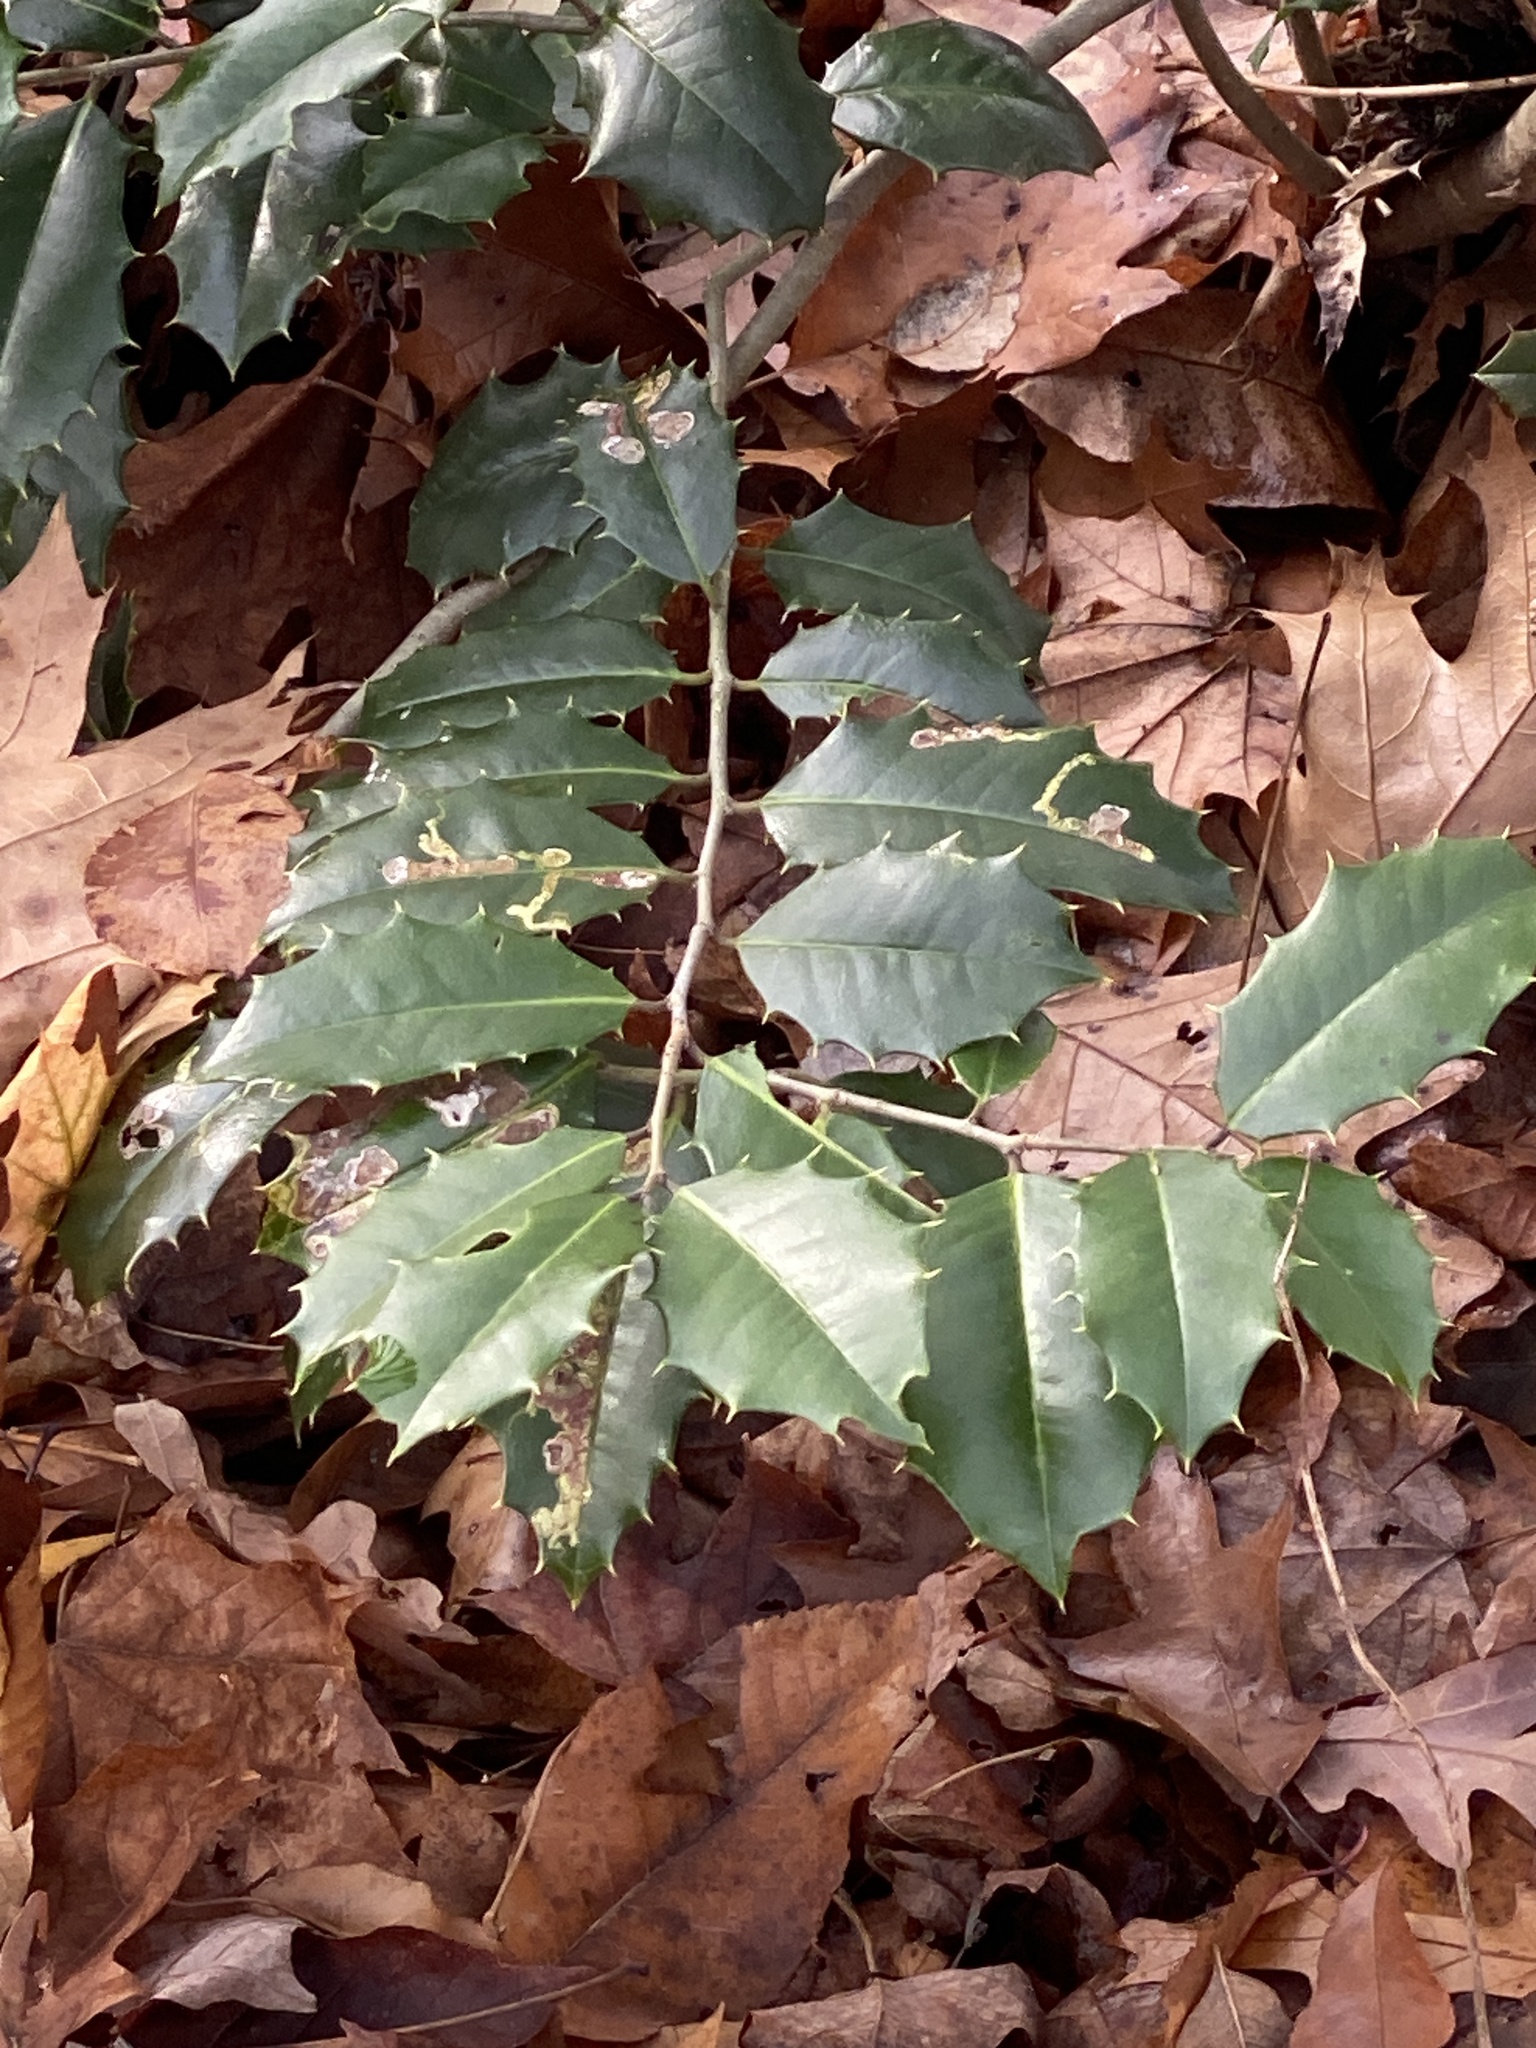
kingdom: Plantae
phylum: Tracheophyta
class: Magnoliopsida
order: Aquifoliales
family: Aquifoliaceae
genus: Ilex
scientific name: Ilex opaca
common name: American holly
